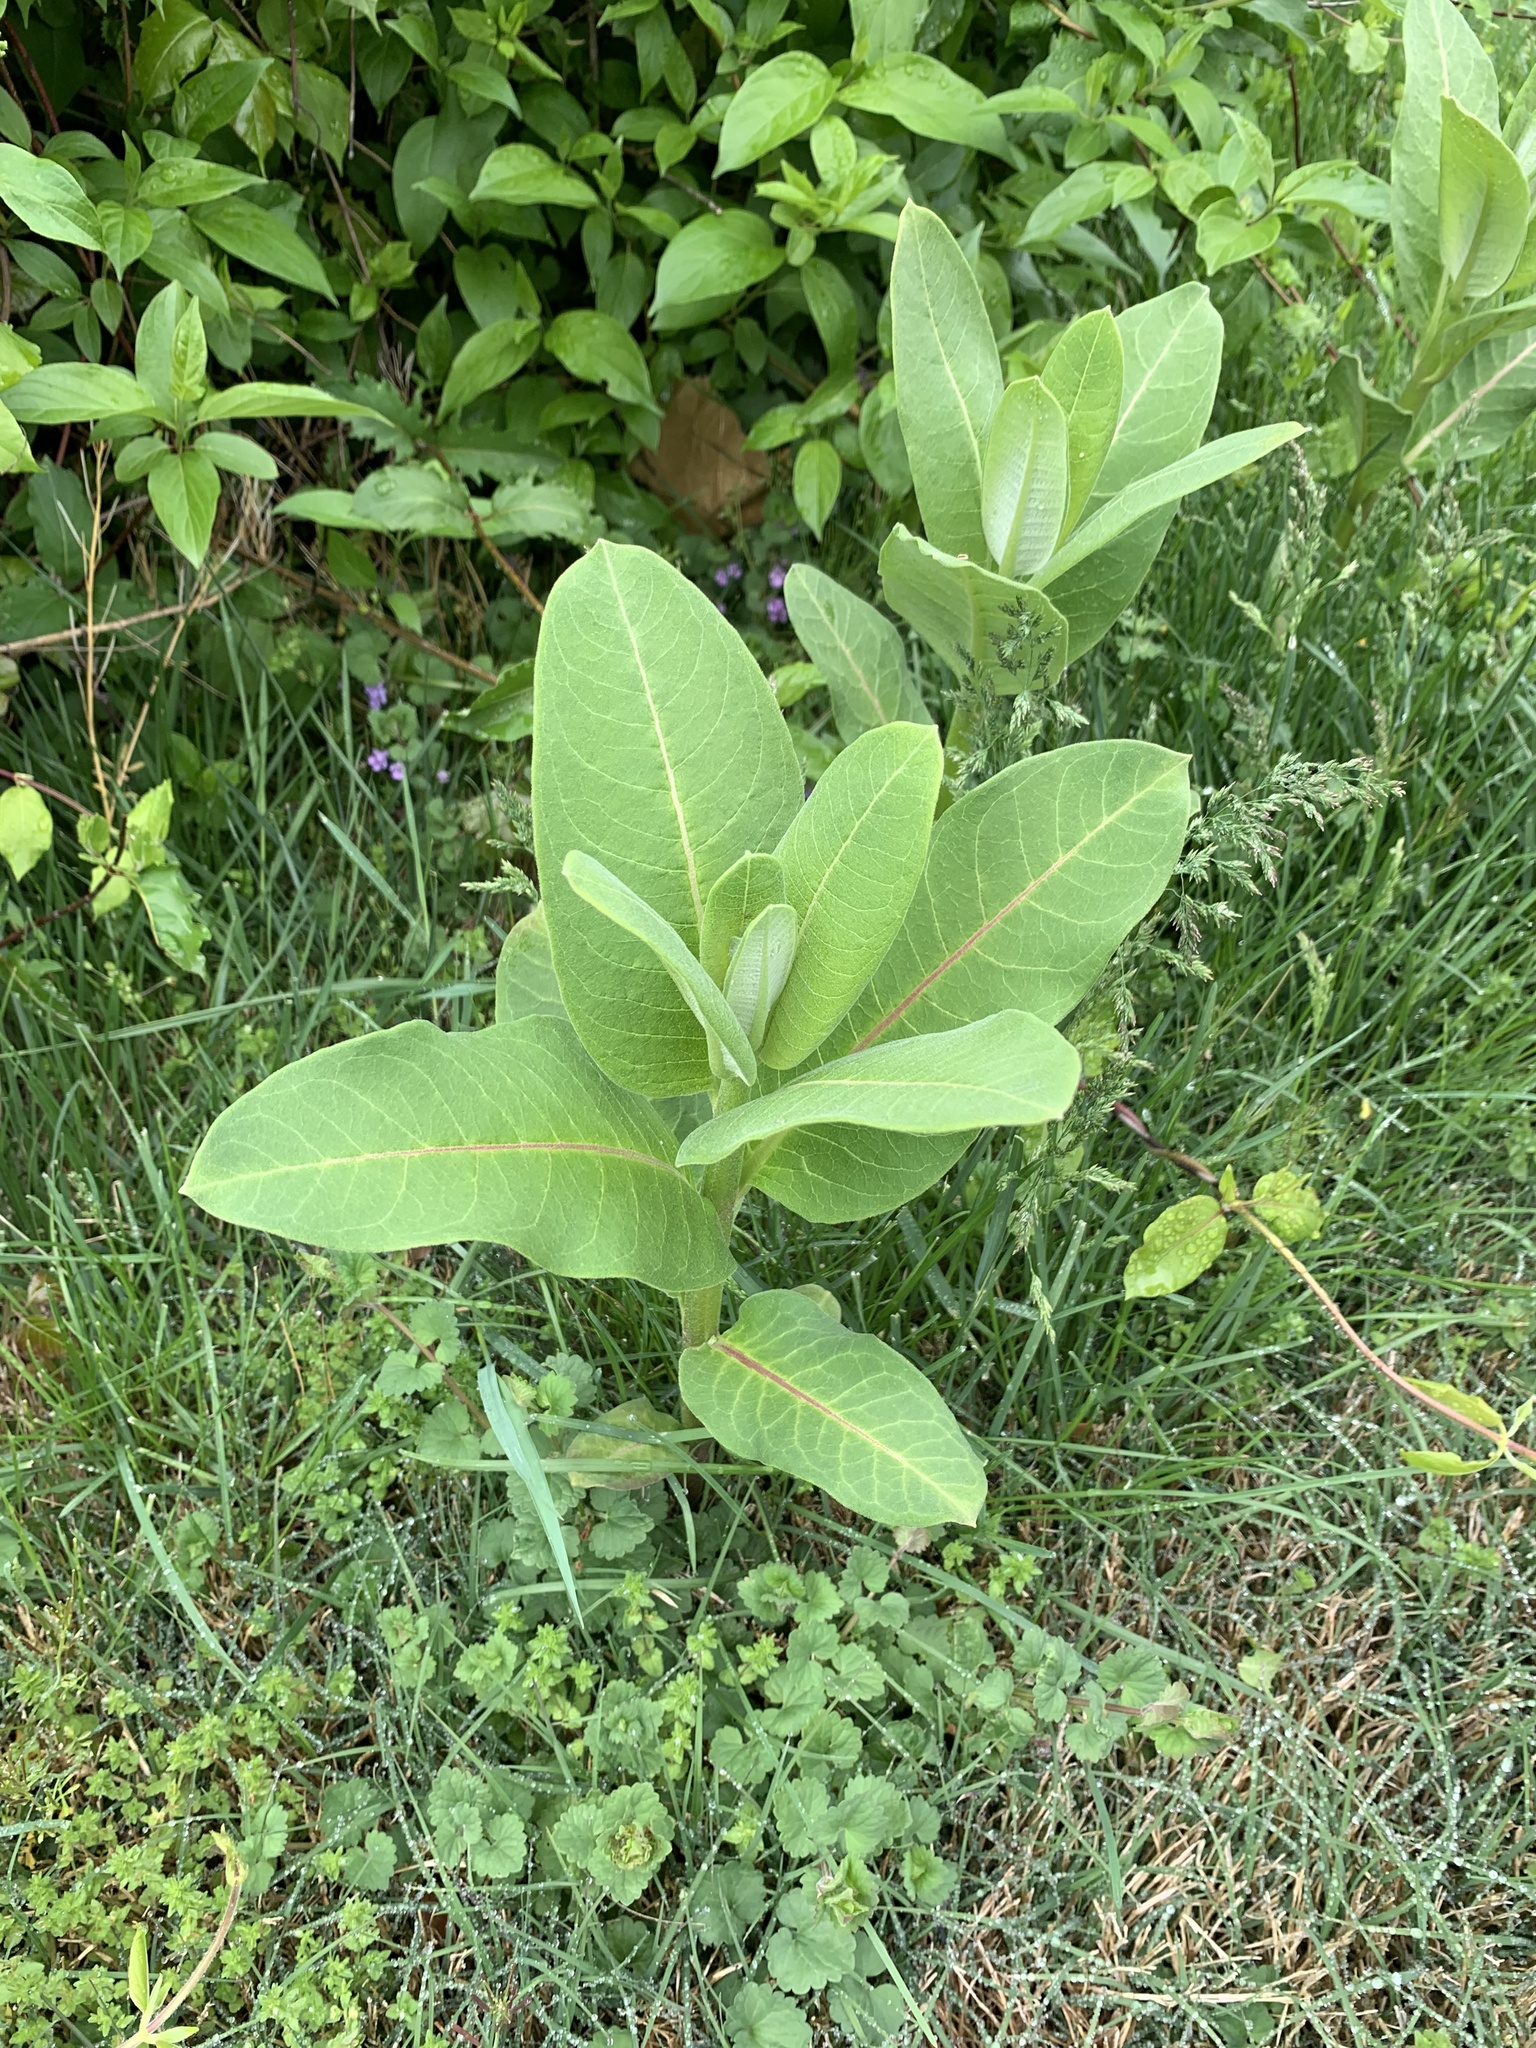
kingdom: Plantae
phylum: Tracheophyta
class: Magnoliopsida
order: Gentianales
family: Apocynaceae
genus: Asclepias
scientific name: Asclepias syriaca
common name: Common milkweed
